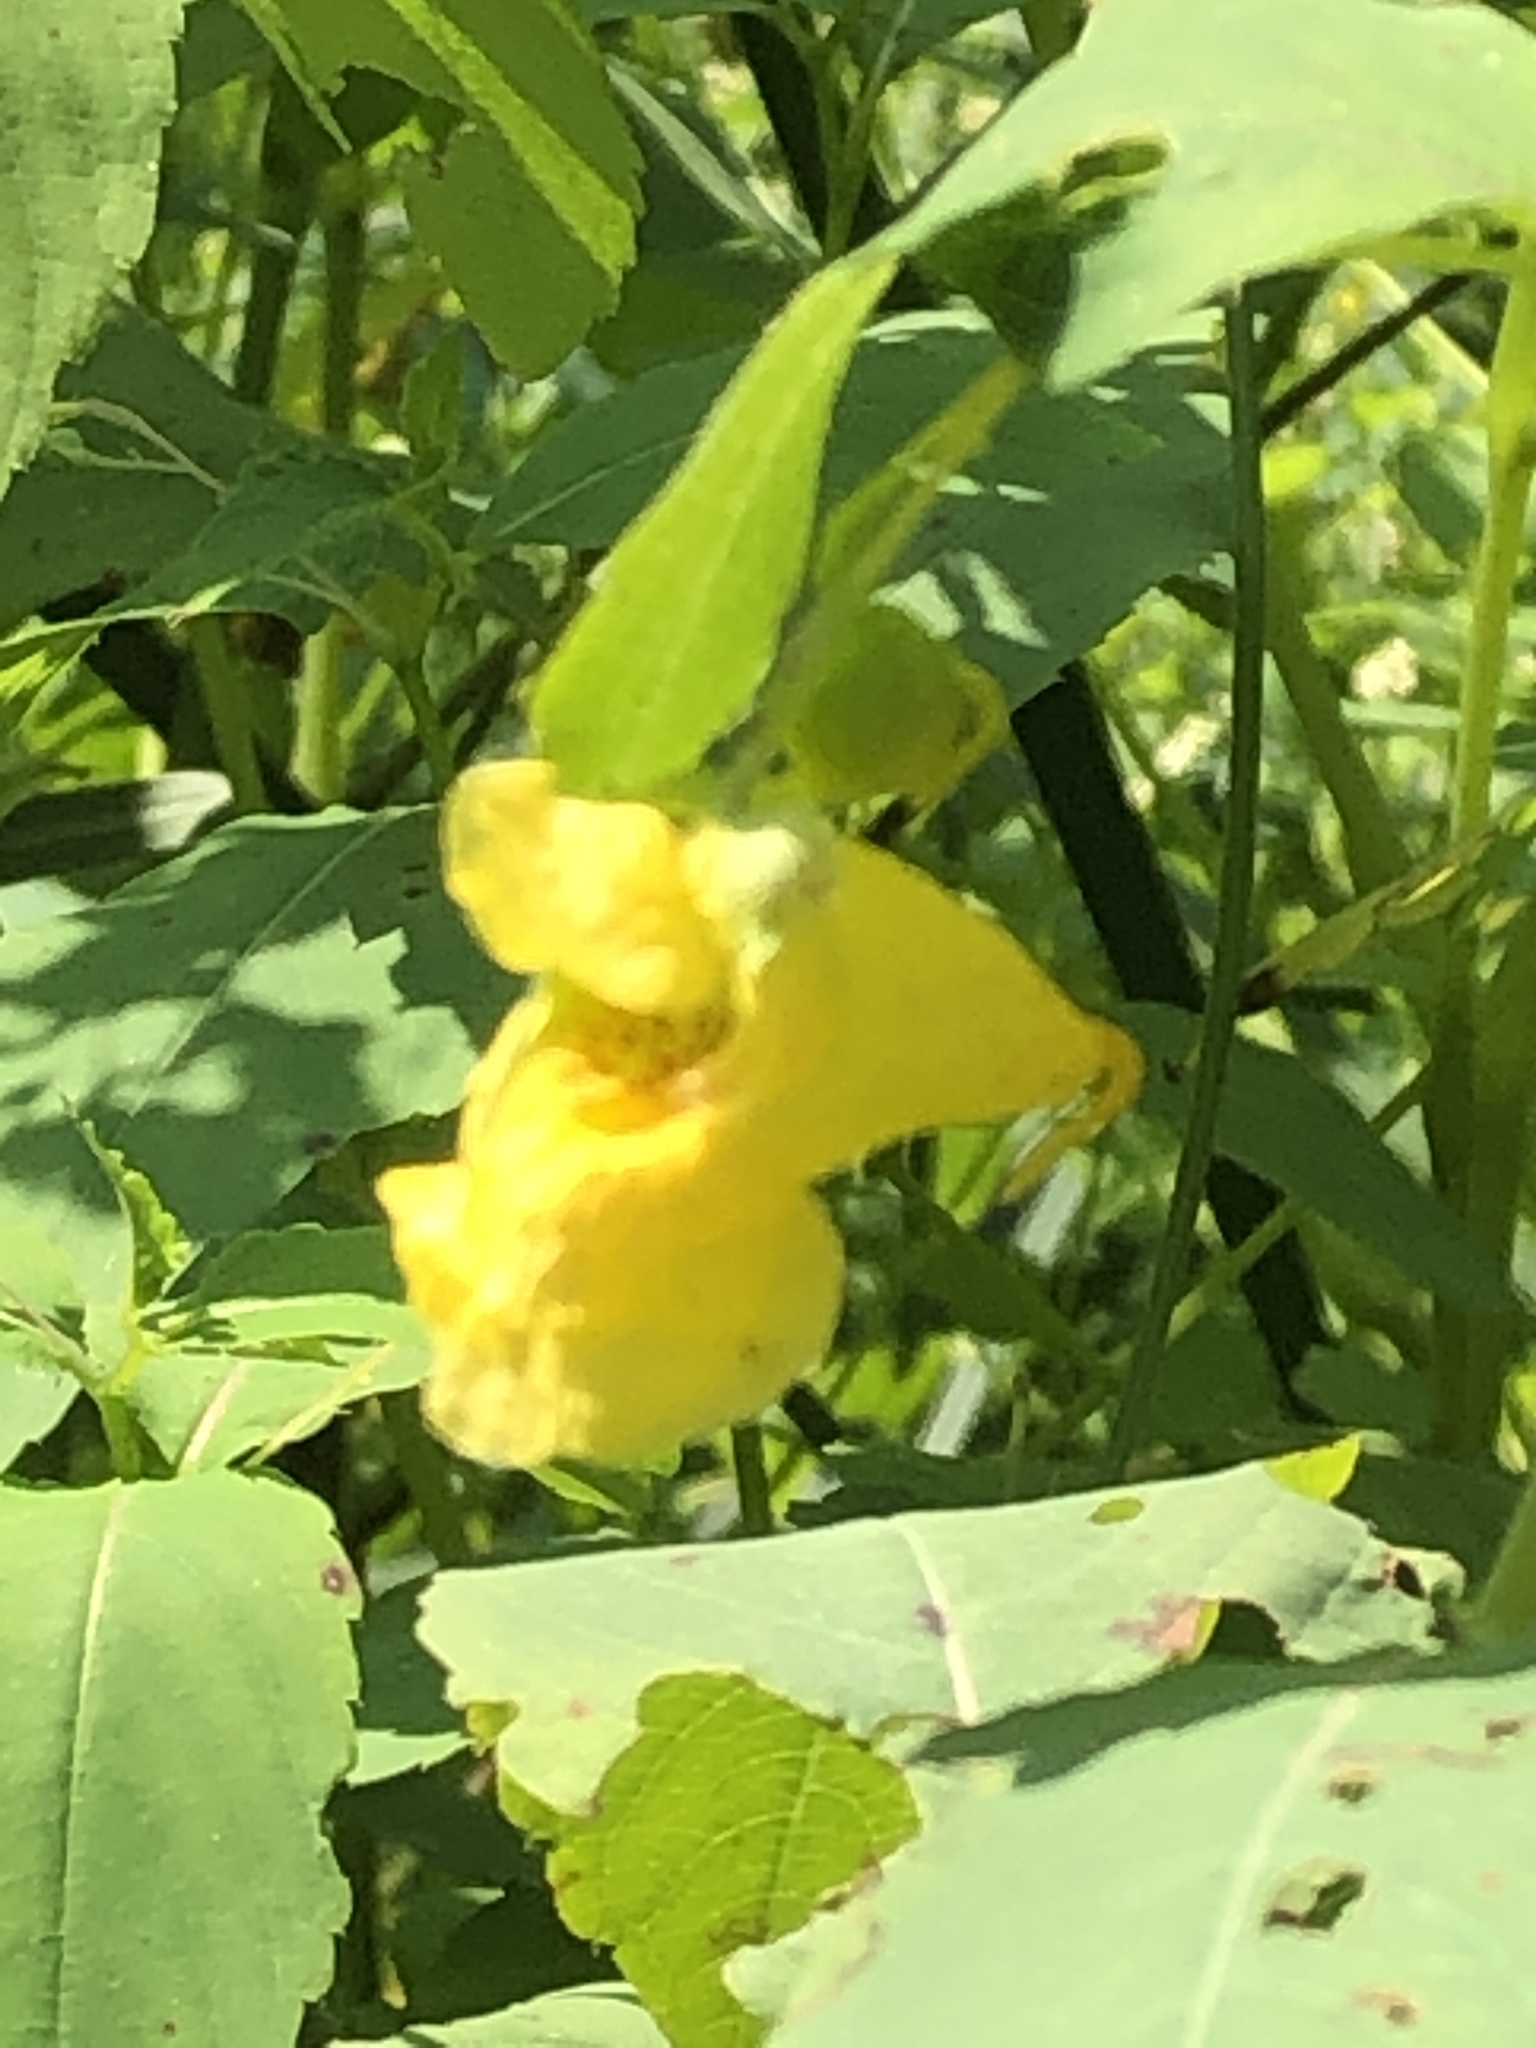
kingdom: Plantae
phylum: Tracheophyta
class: Magnoliopsida
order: Ericales
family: Balsaminaceae
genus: Impatiens
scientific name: Impatiens pallida
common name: Pale snapweed
